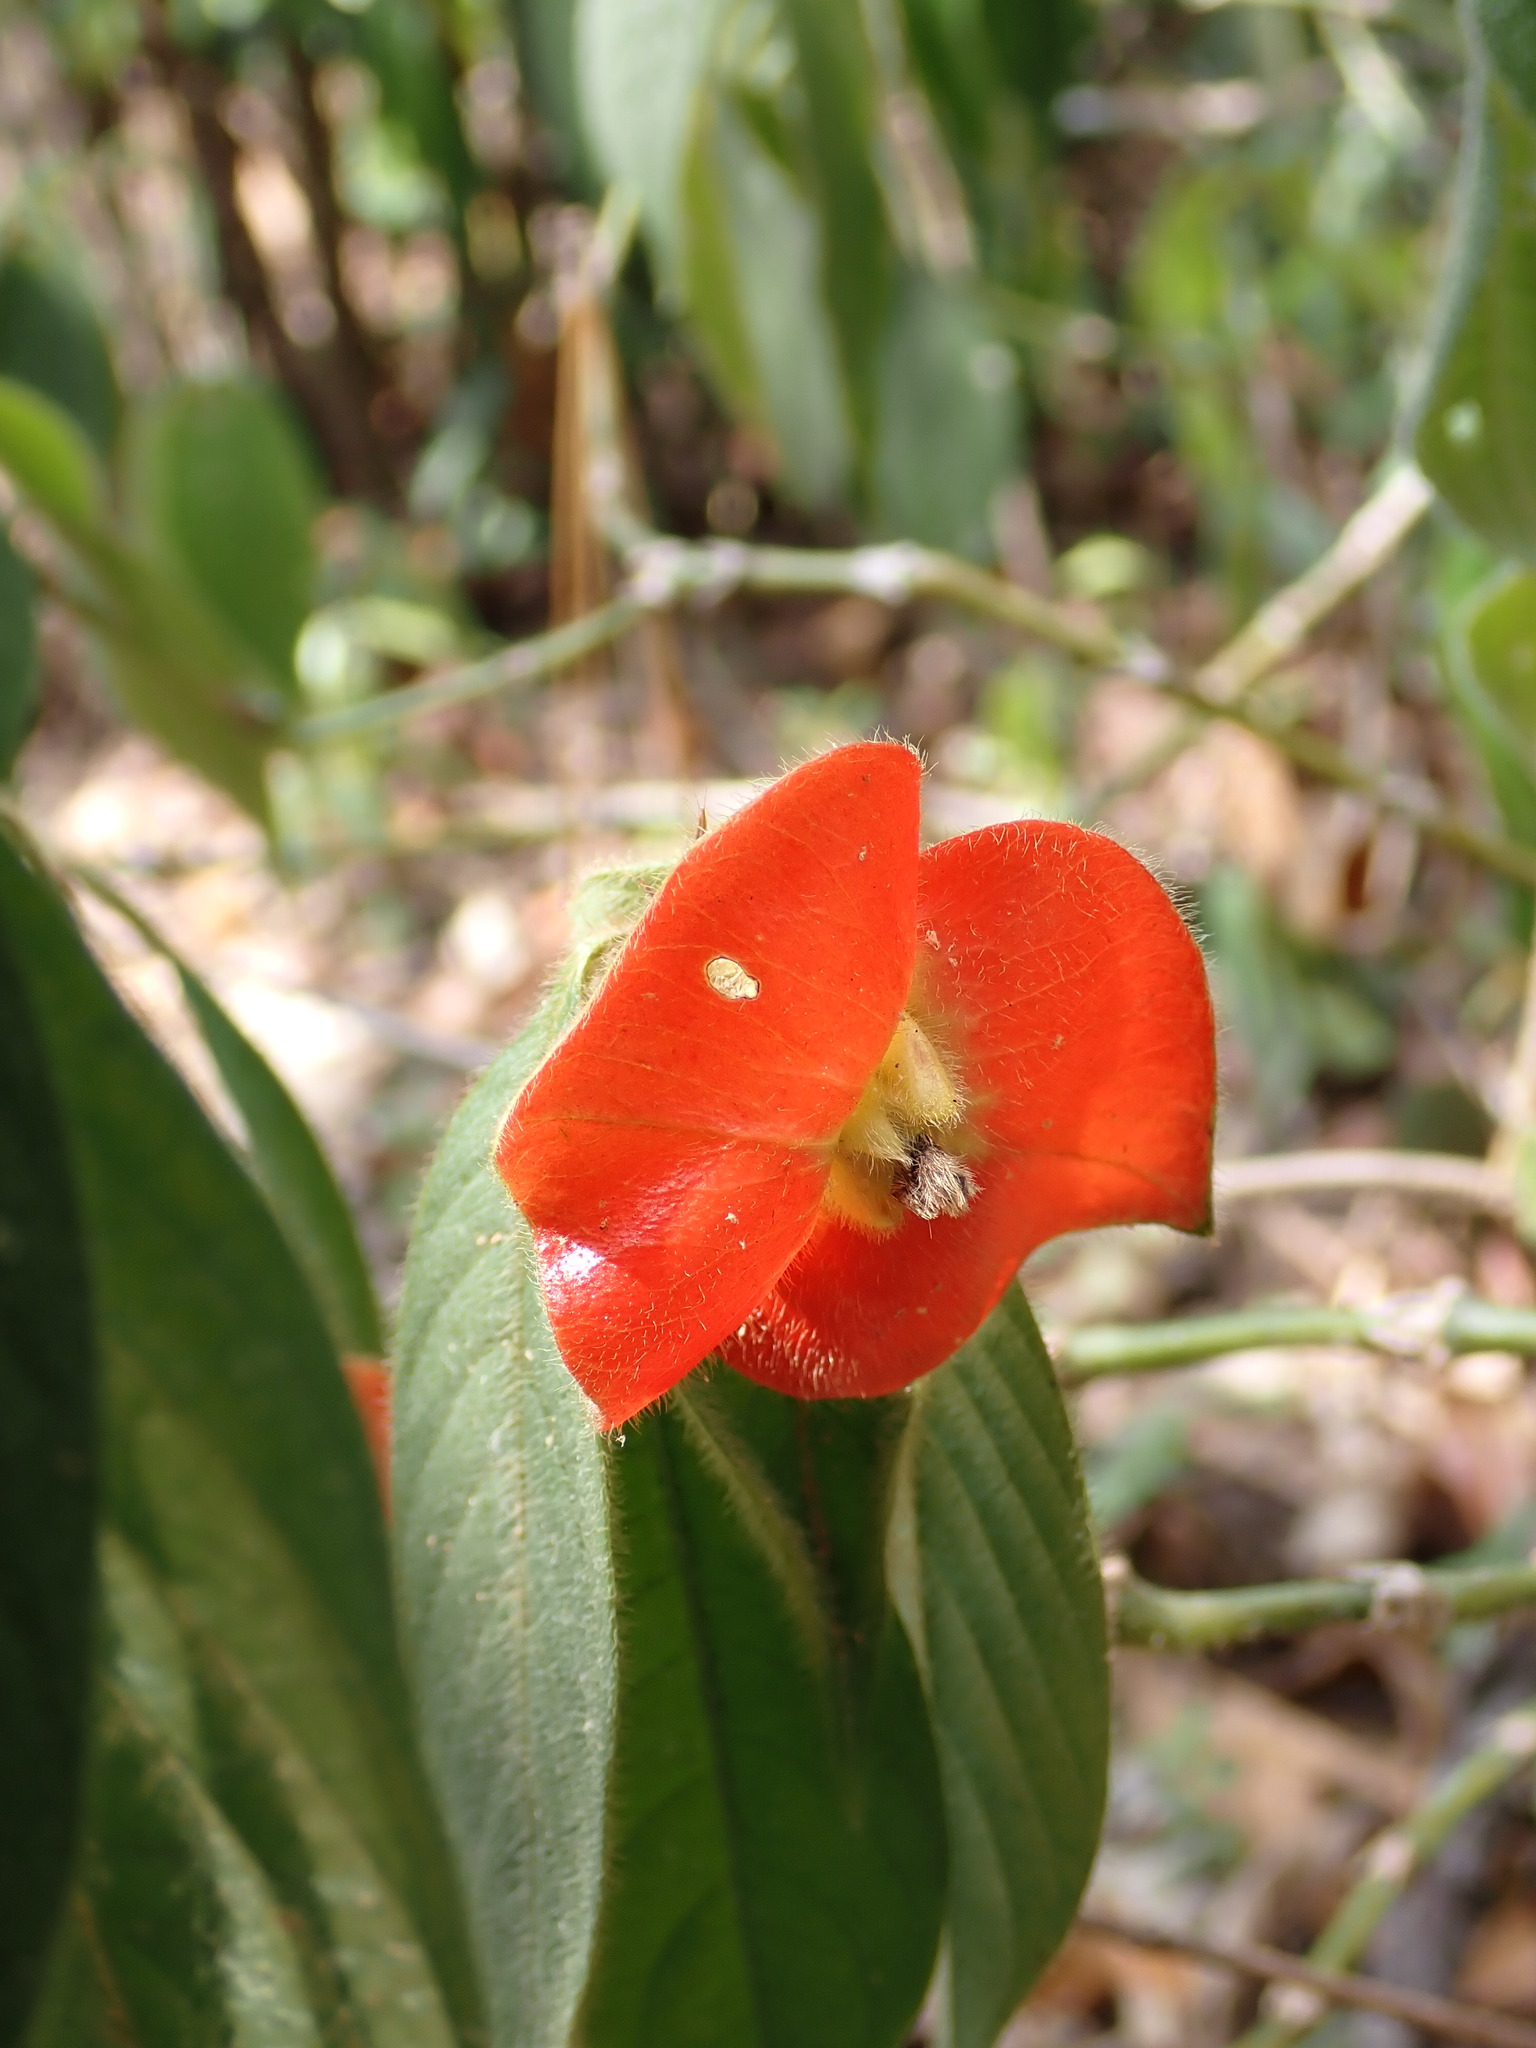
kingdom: Plantae
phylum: Tracheophyta
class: Magnoliopsida
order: Gentianales
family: Rubiaceae
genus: Palicourea
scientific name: Palicourea tomentosa
